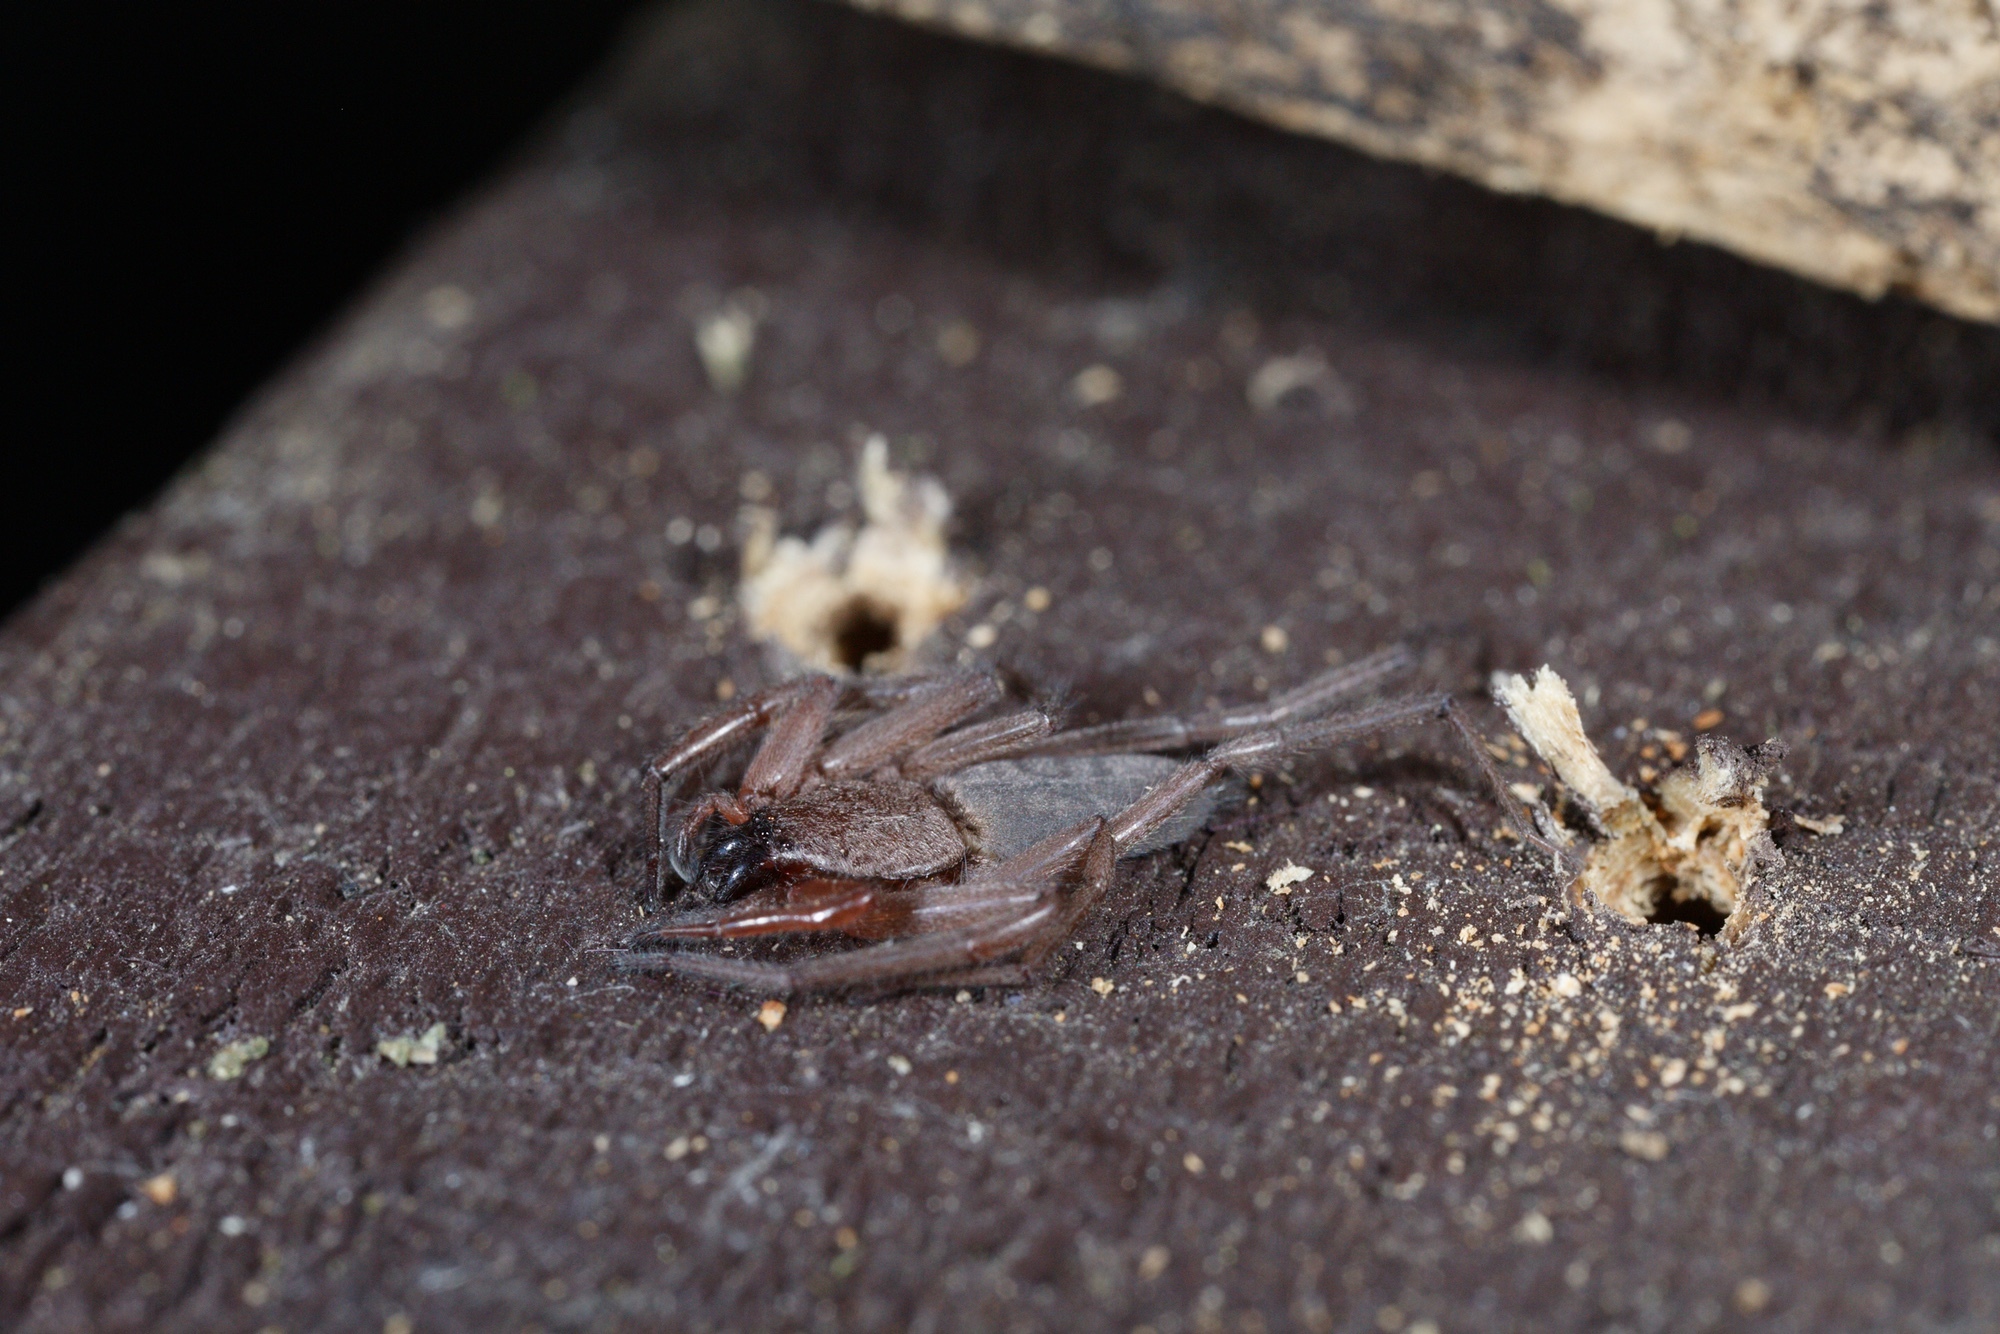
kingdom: Animalia
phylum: Arthropoda
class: Arachnida
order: Araneae
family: Trochanteriidae
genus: Hemicloea
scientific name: Hemicloea rogenhoferi
